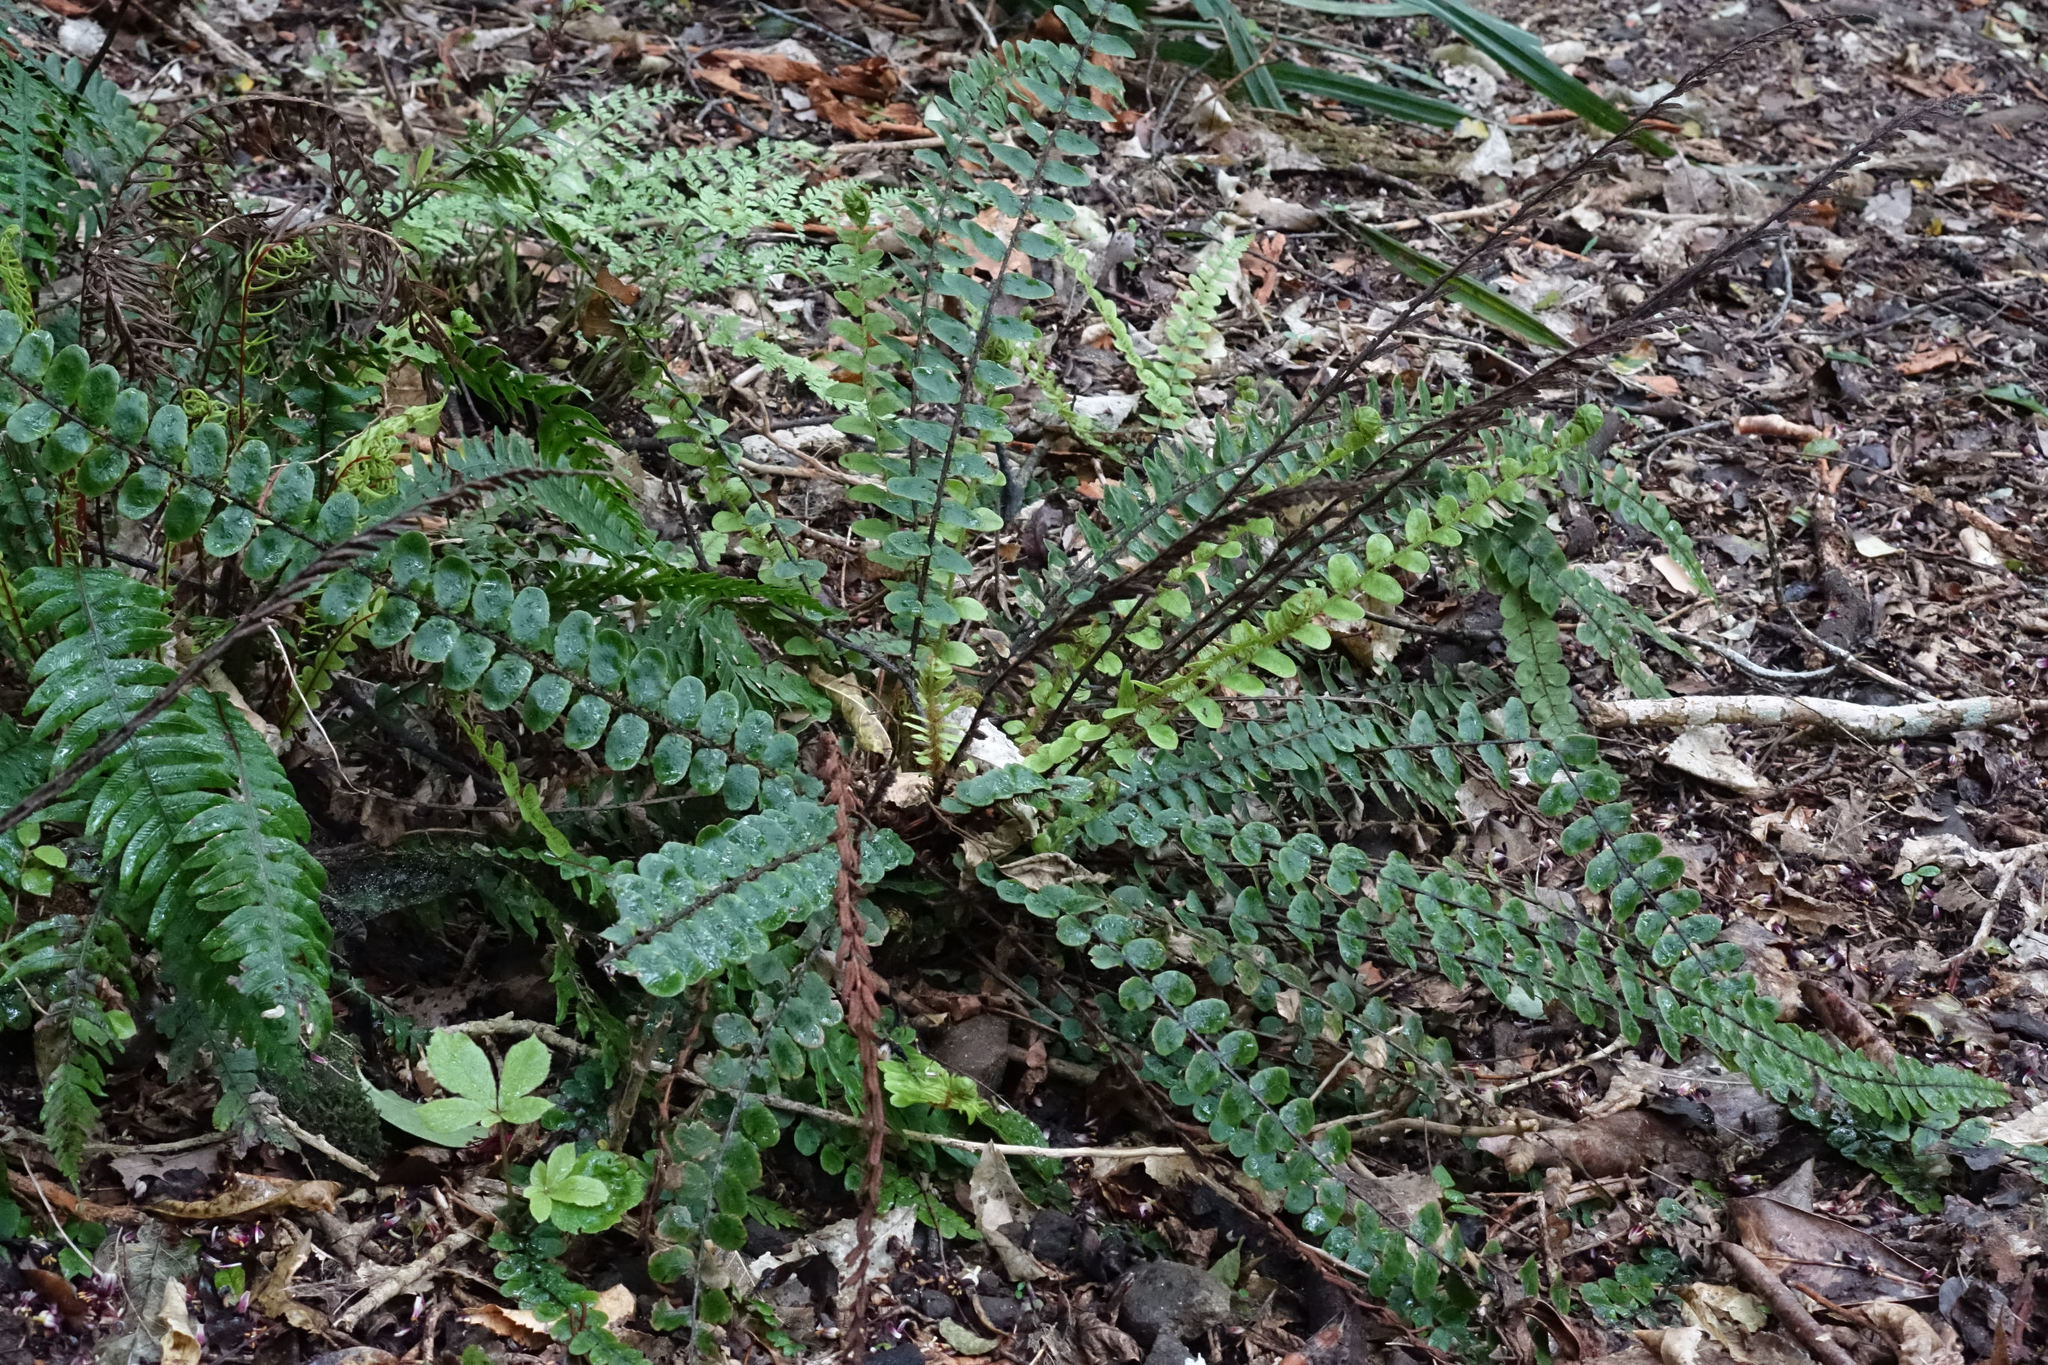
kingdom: Plantae
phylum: Tracheophyta
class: Polypodiopsida
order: Polypodiales
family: Blechnaceae
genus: Cranfillia
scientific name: Cranfillia fluviatilis
